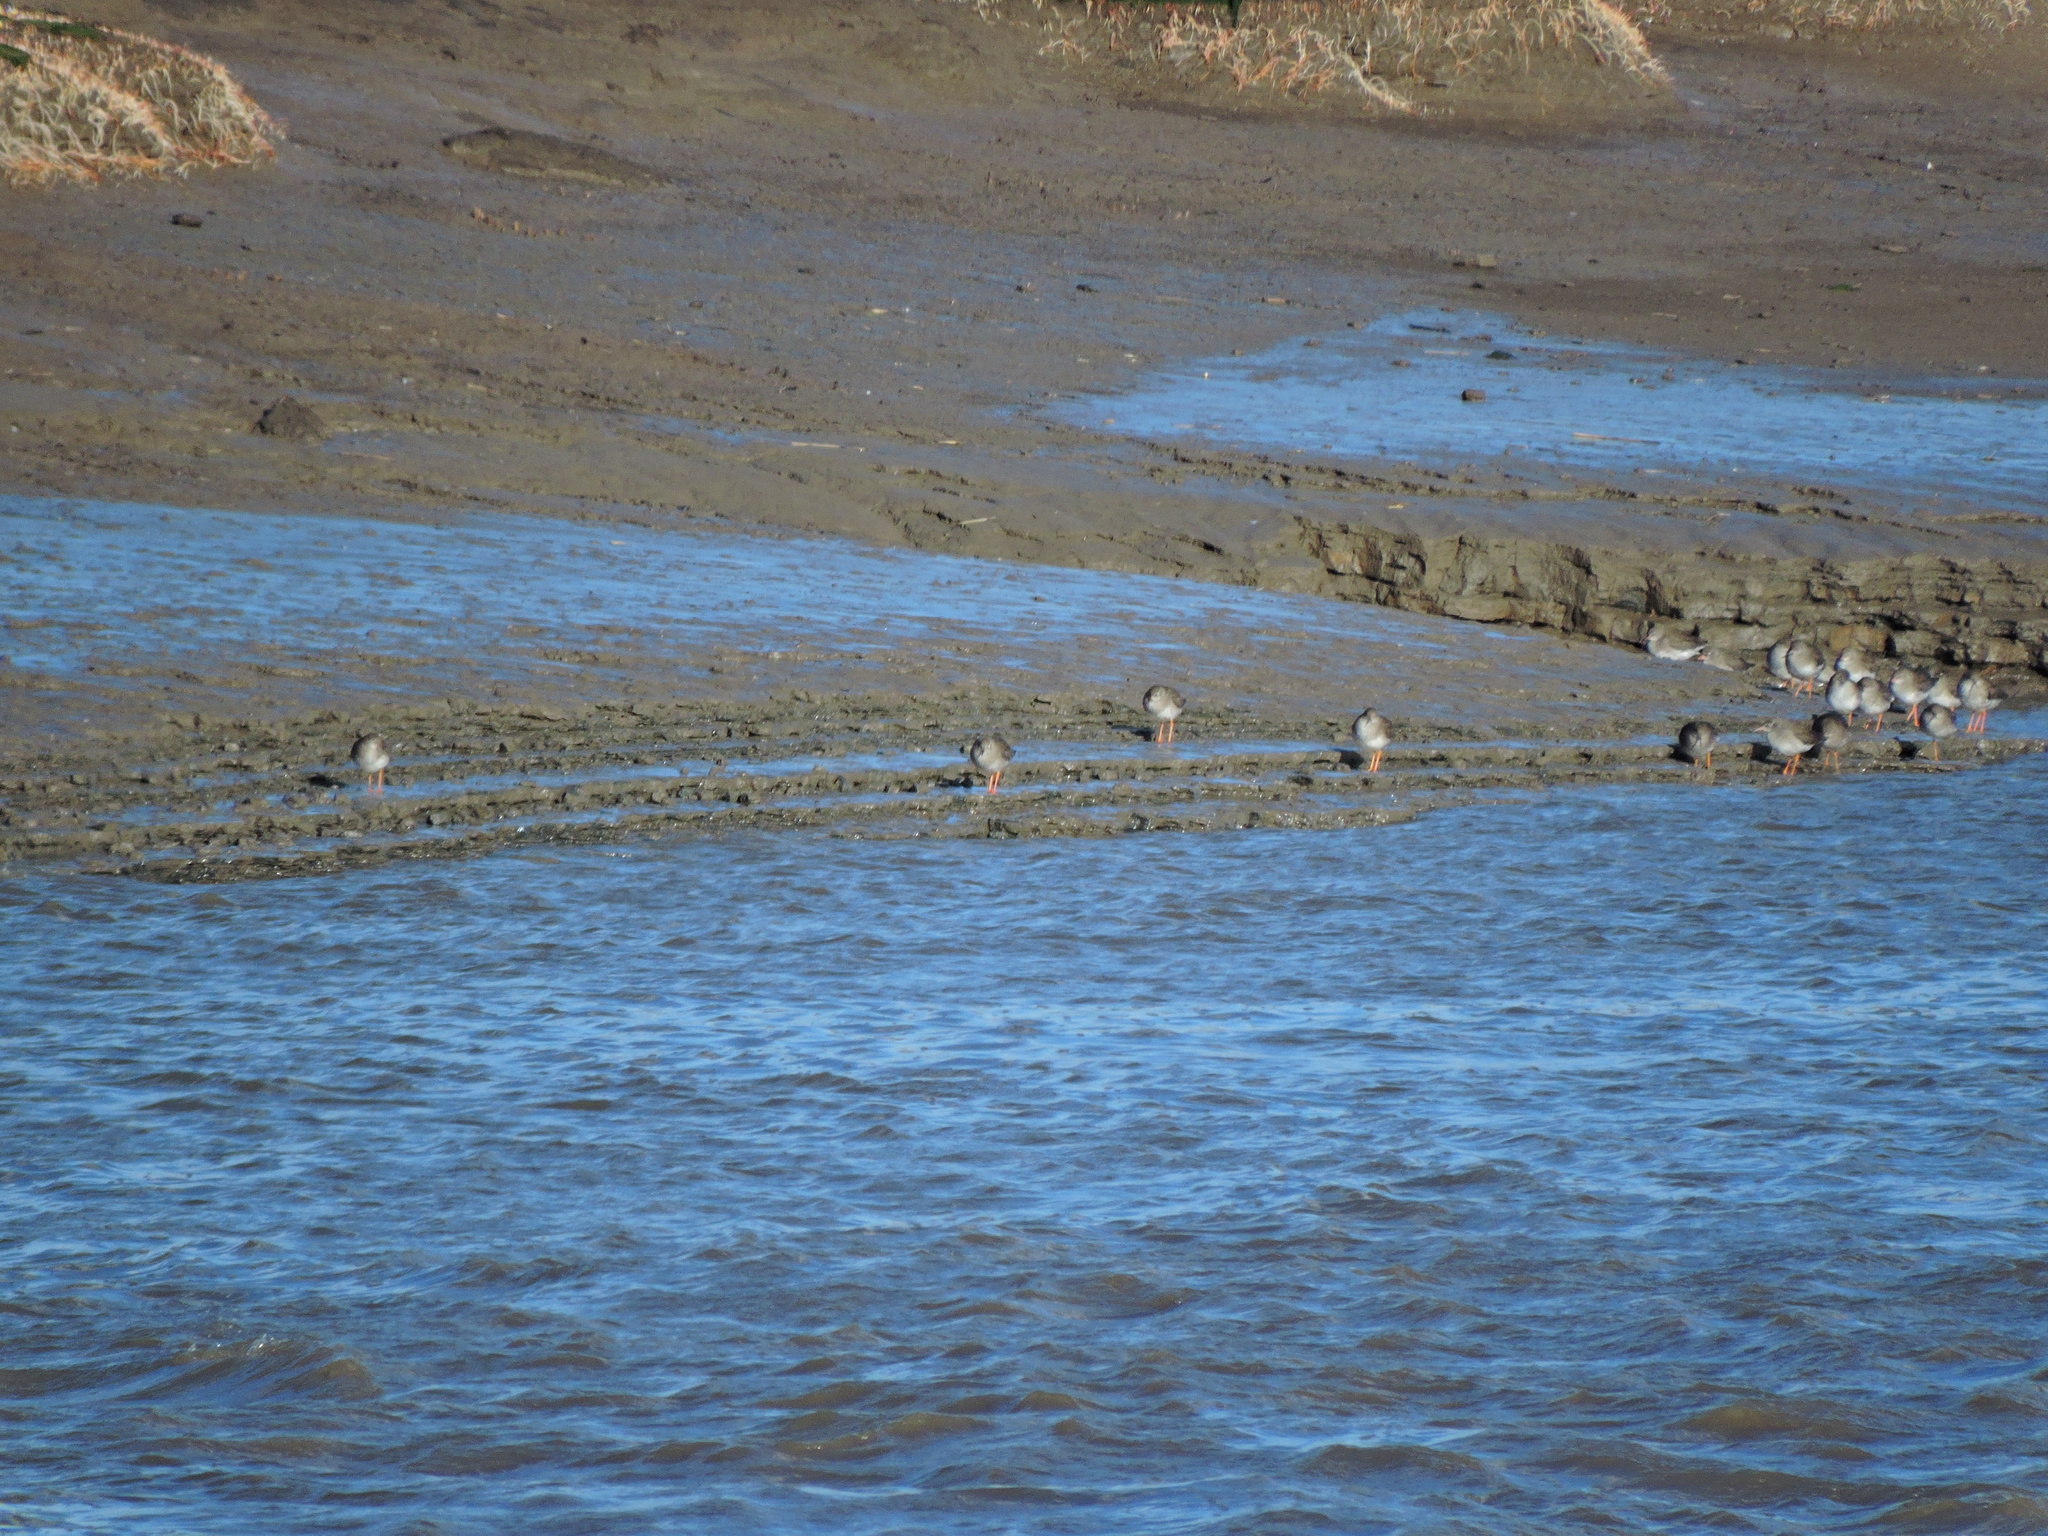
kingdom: Animalia
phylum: Chordata
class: Aves
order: Charadriiformes
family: Scolopacidae
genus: Tringa
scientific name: Tringa totanus
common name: Common redshank
